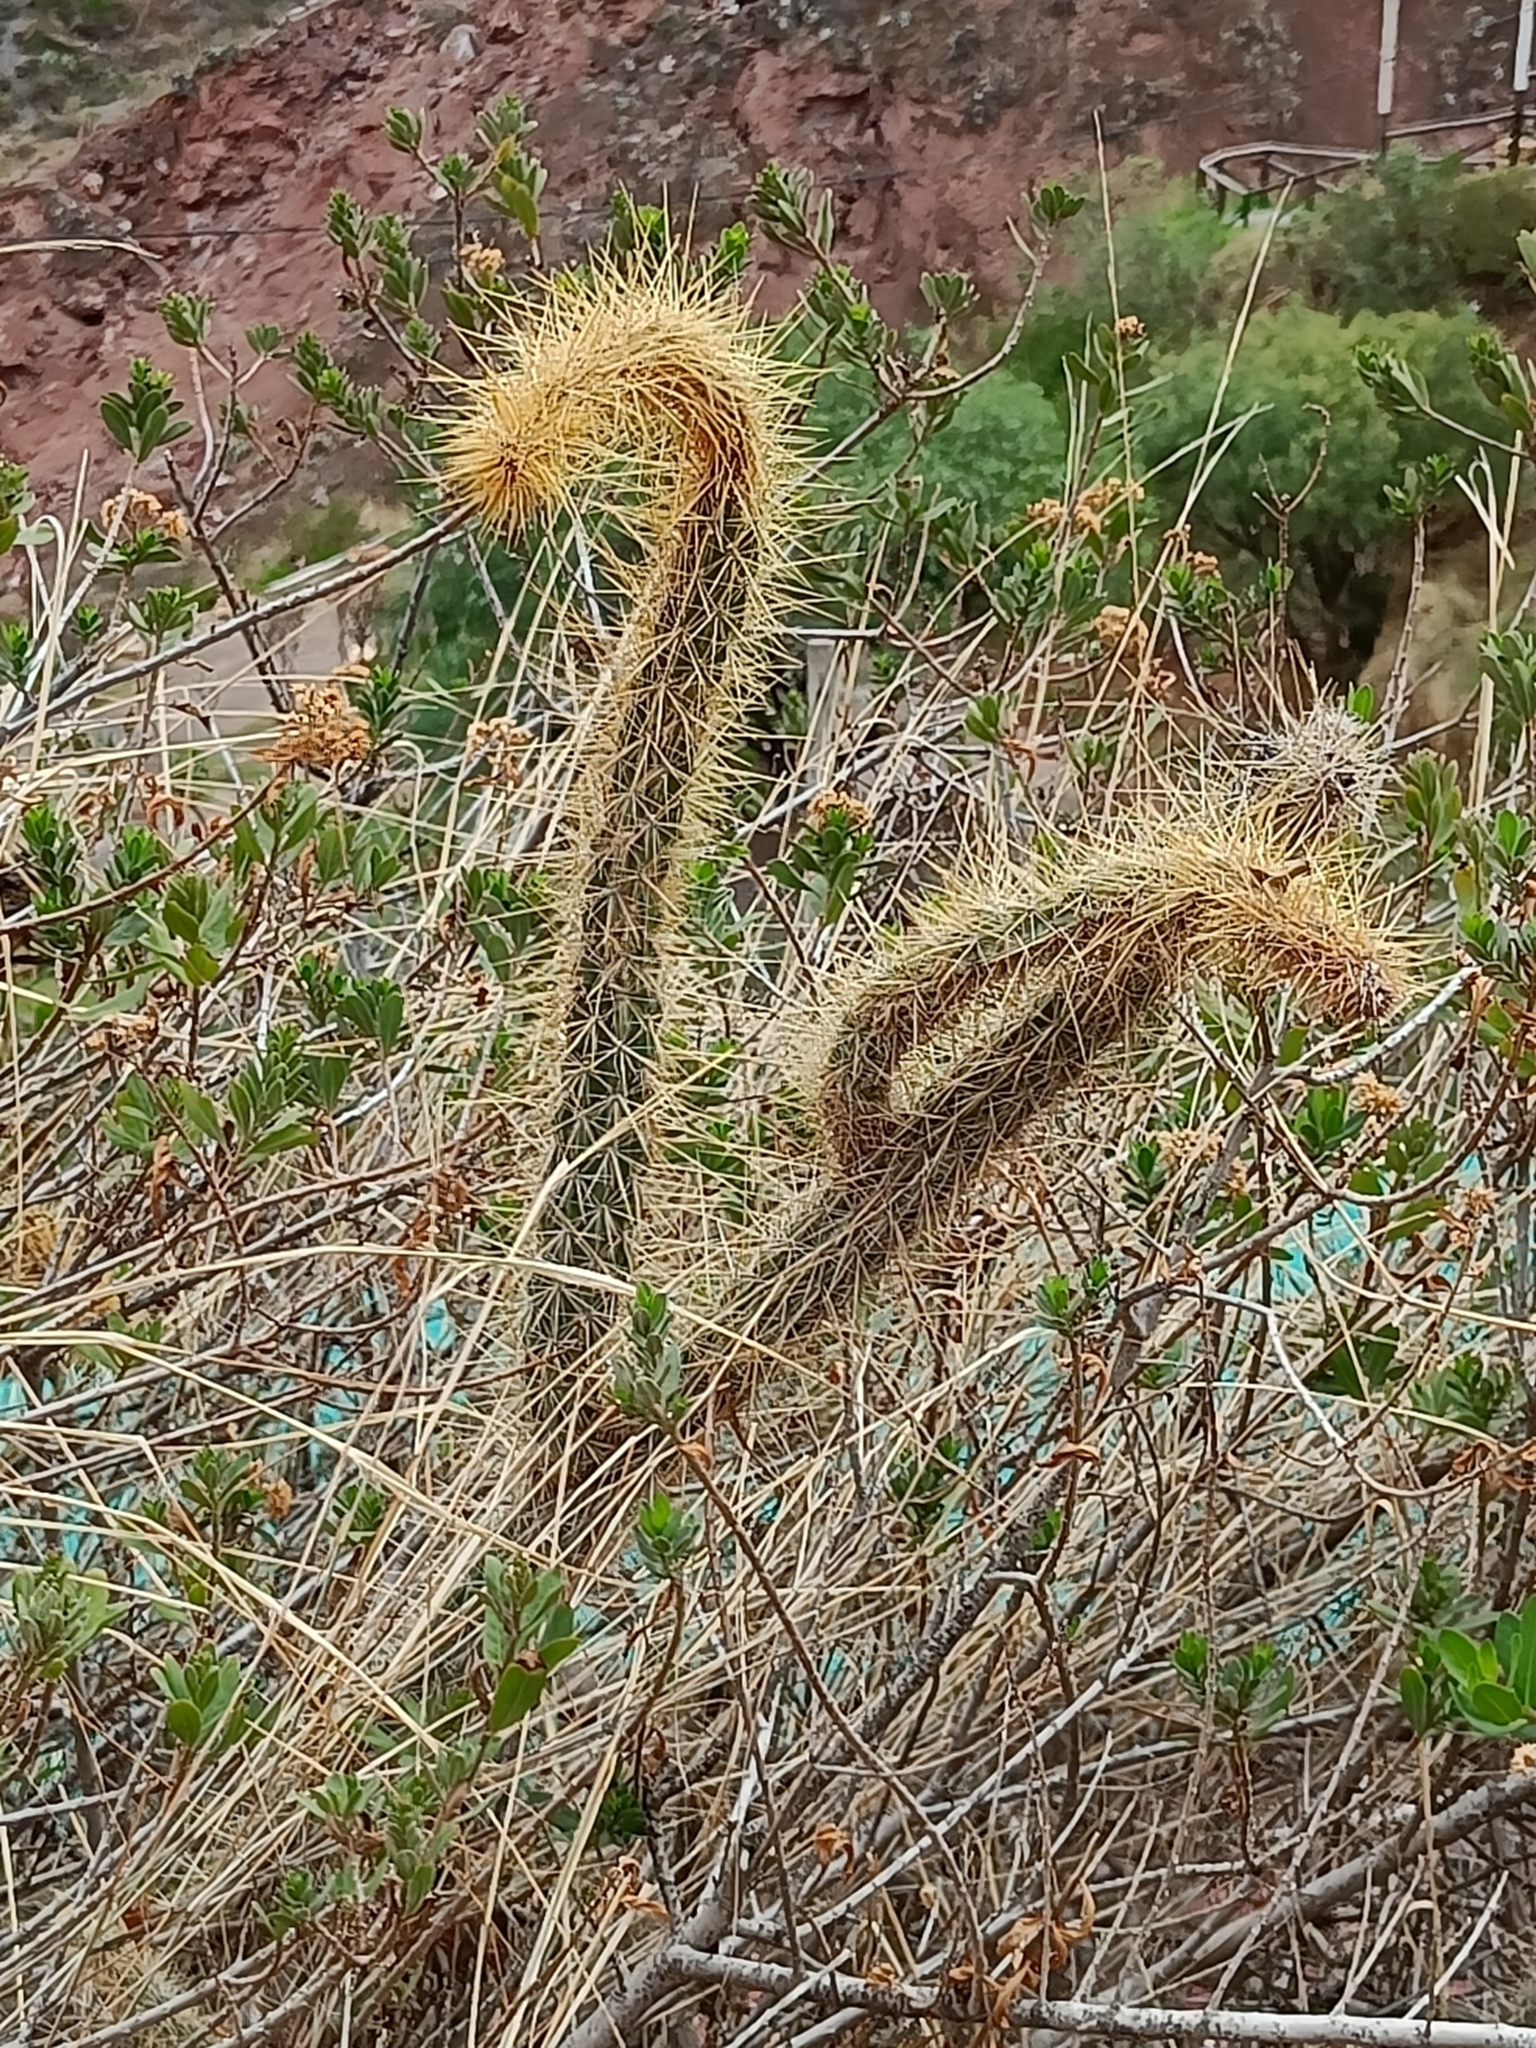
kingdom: Plantae
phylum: Tracheophyta
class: Magnoliopsida
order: Caryophyllales
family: Cactaceae
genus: Corryocactus
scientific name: Corryocactus erectus
